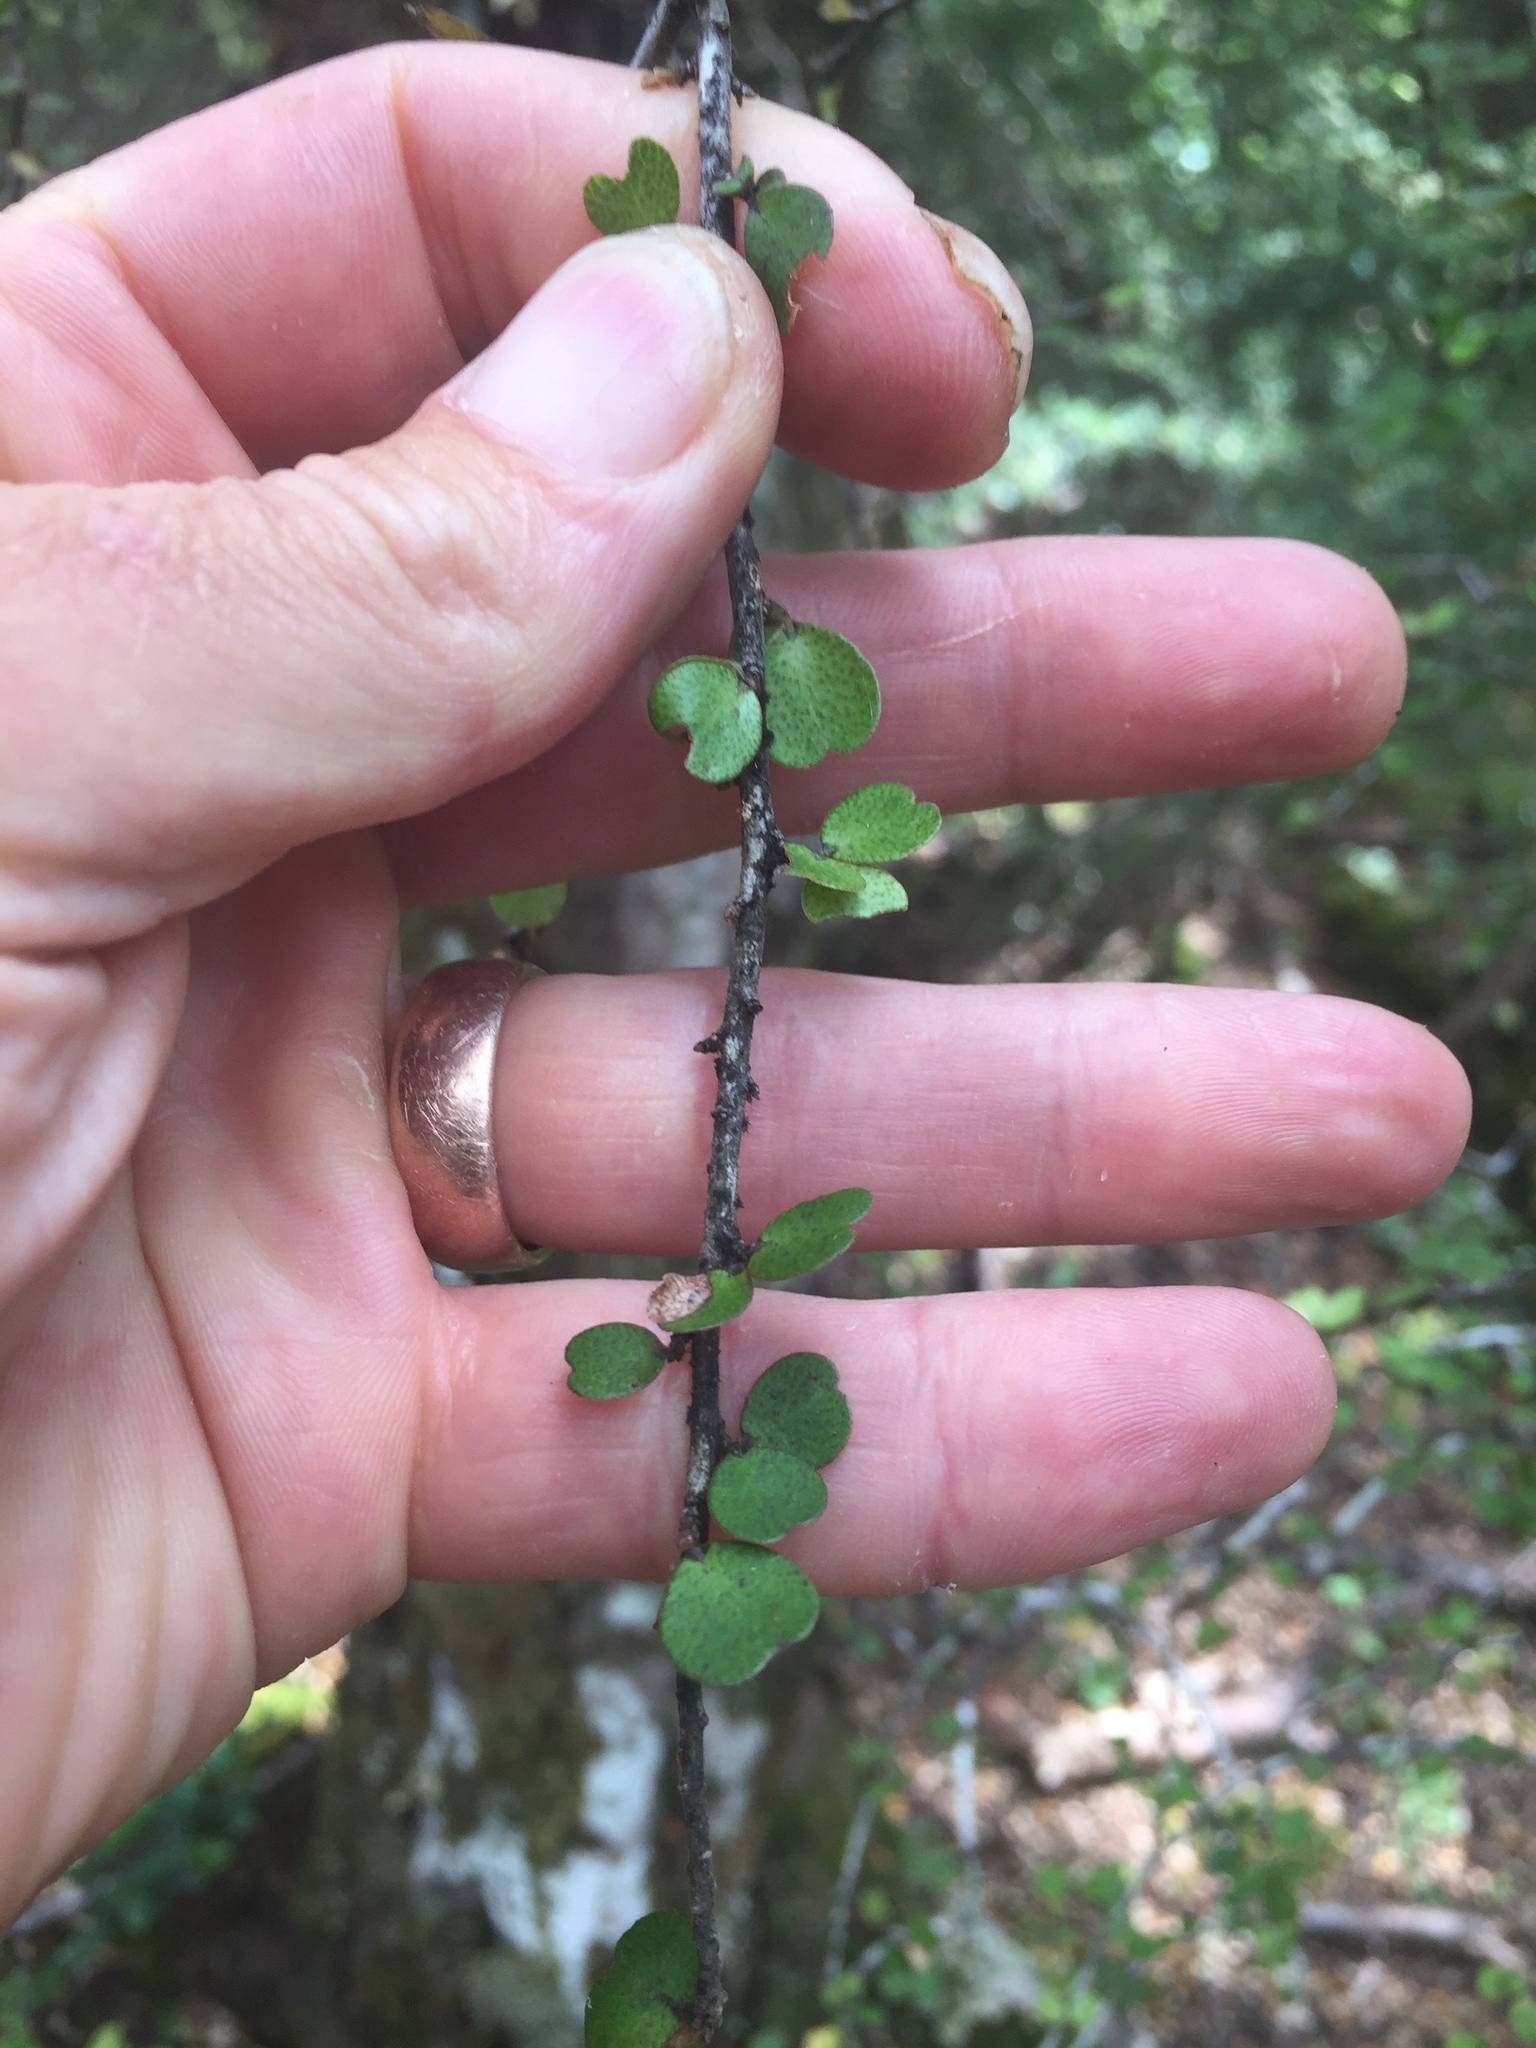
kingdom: Plantae
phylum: Tracheophyta
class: Magnoliopsida
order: Ericales
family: Primulaceae
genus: Myrsine
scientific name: Myrsine divaricata
